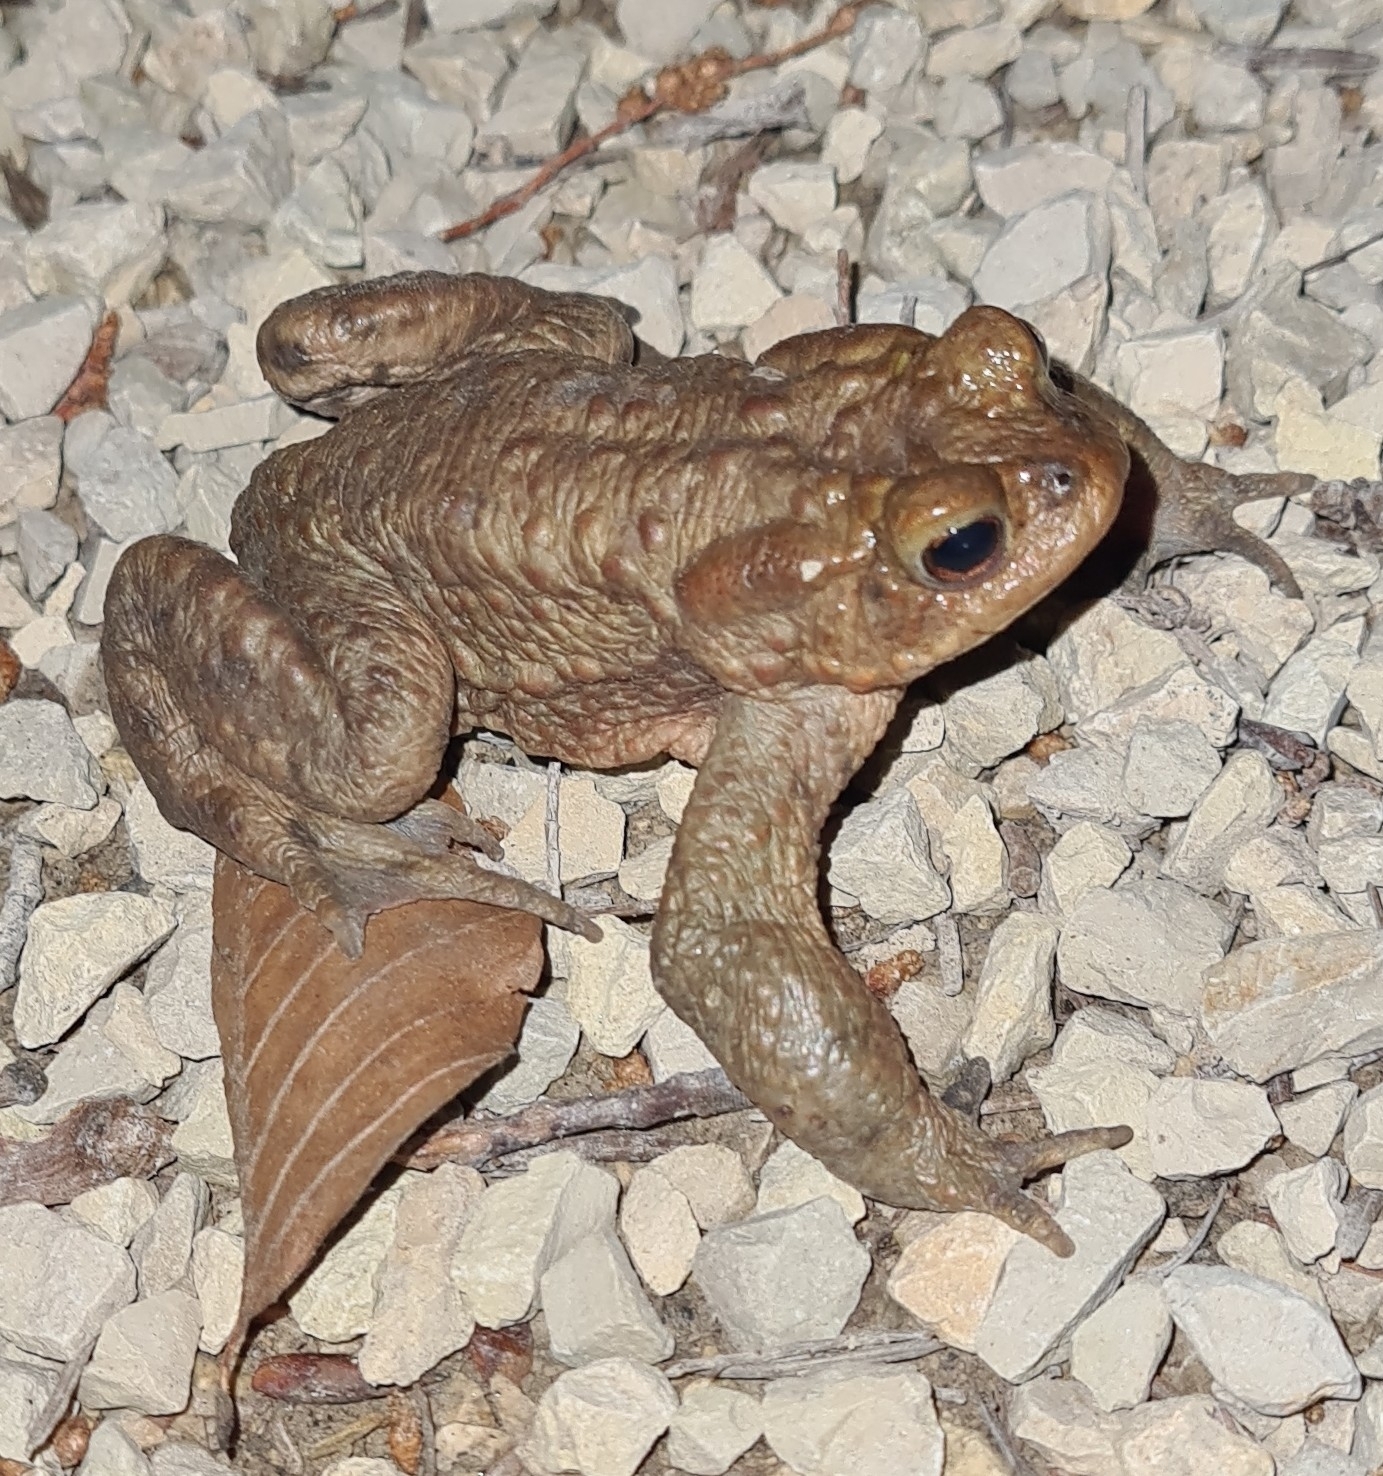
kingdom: Animalia
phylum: Chordata
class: Amphibia
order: Anura
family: Bufonidae
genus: Bufo
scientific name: Bufo bufo
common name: Common toad
